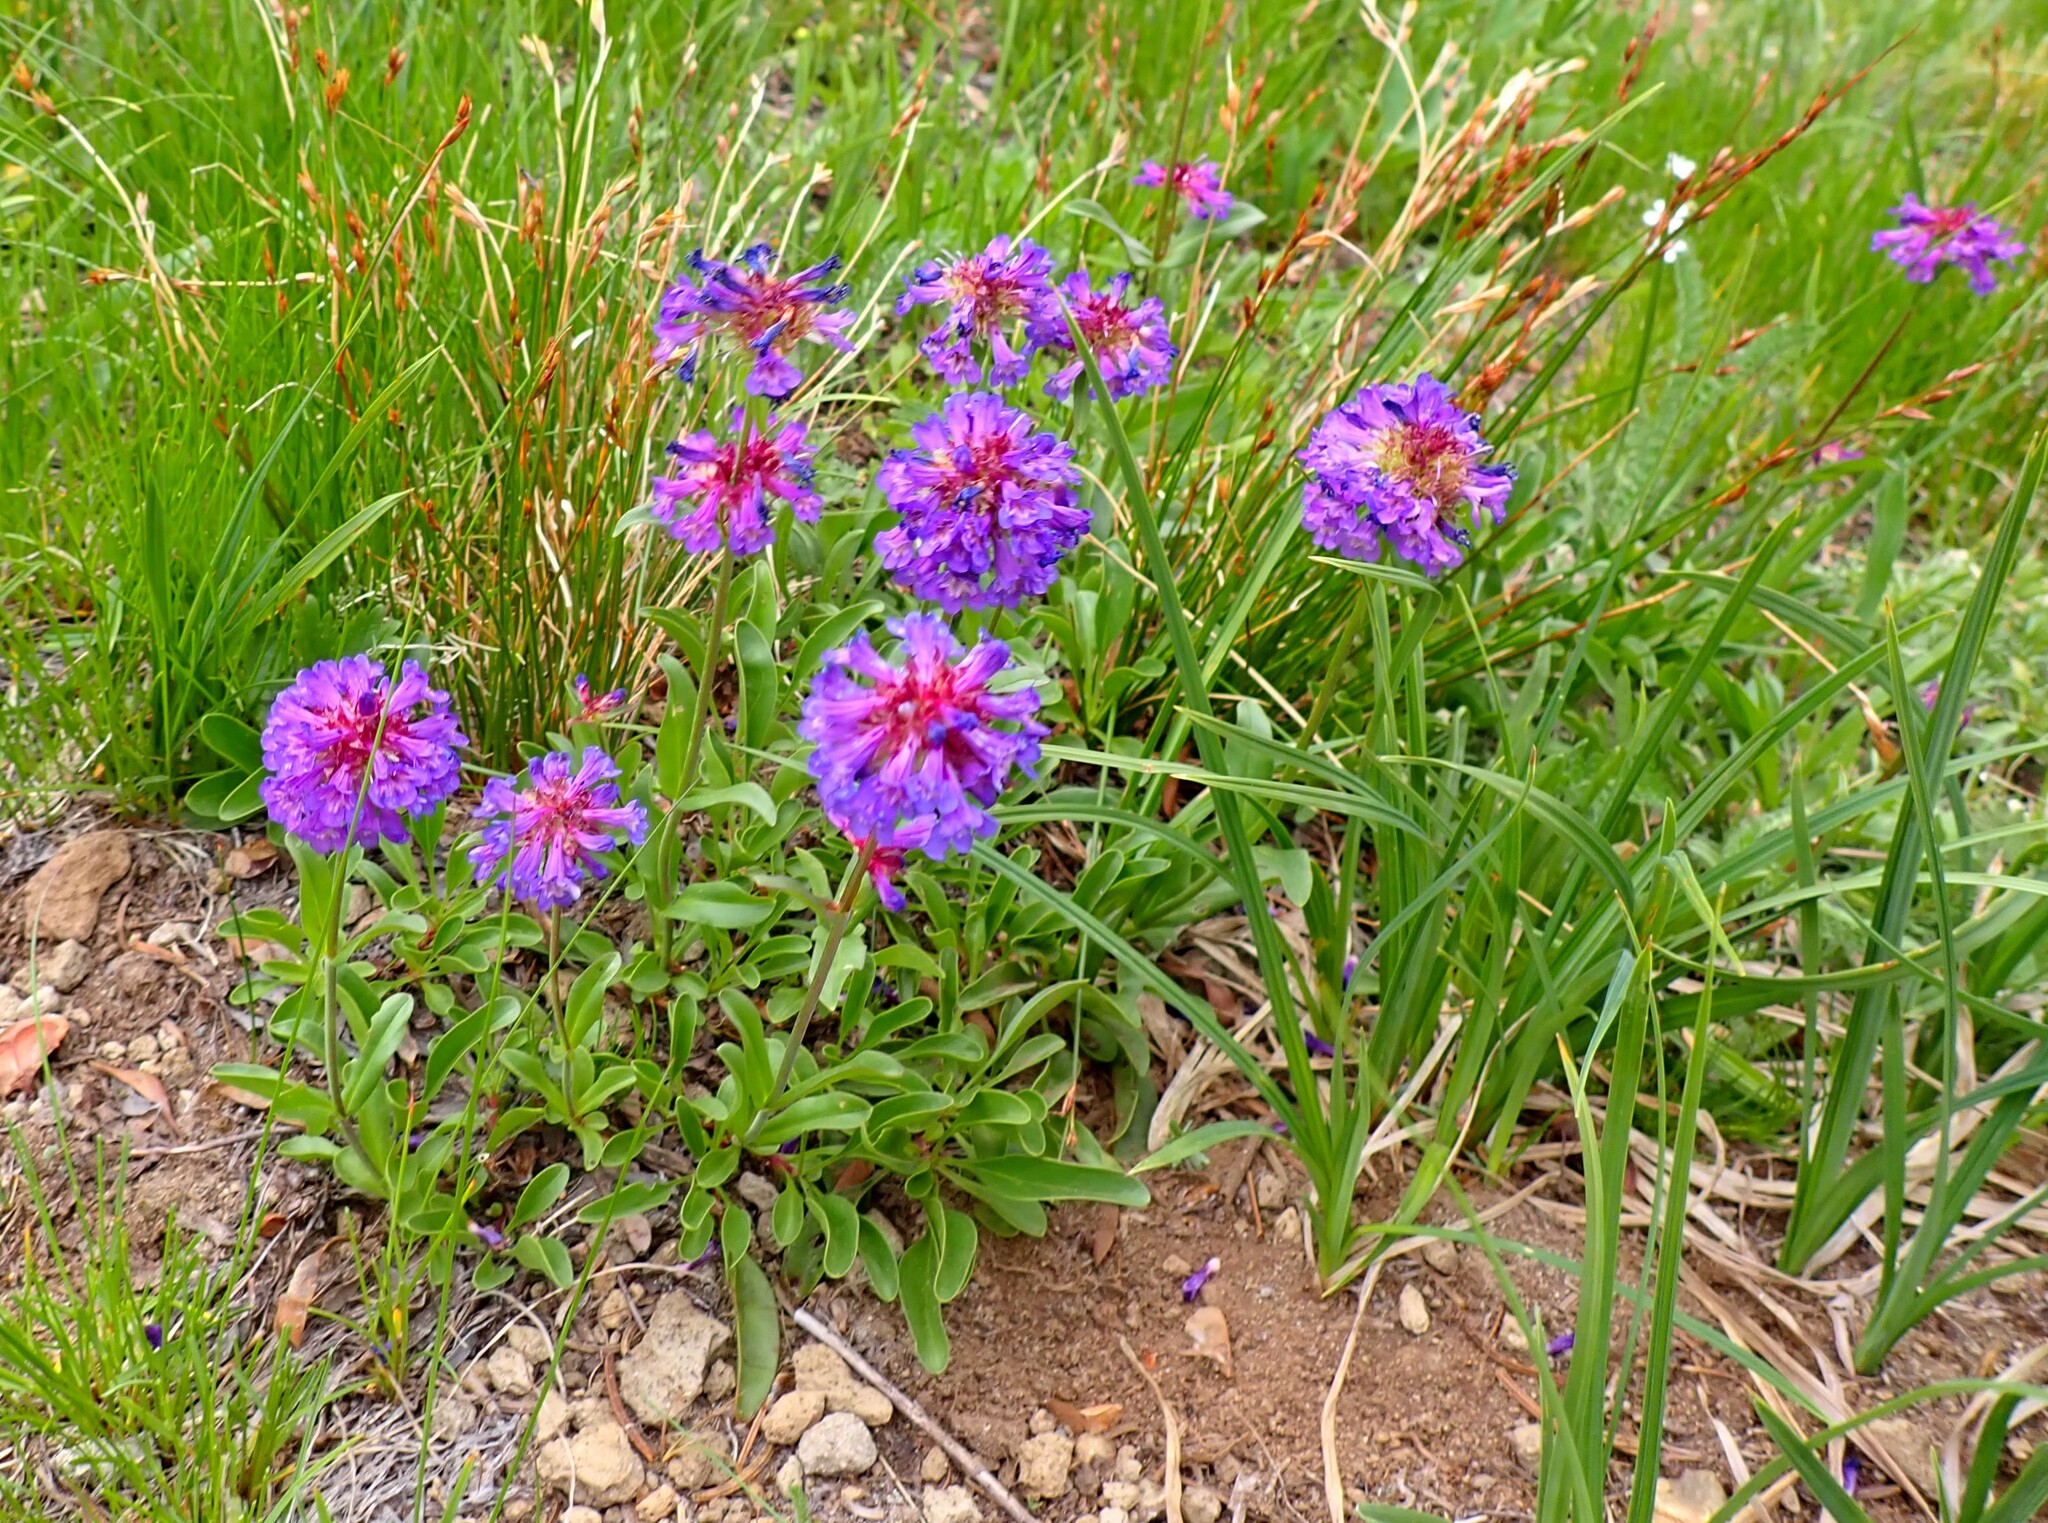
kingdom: Plantae
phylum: Tracheophyta
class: Magnoliopsida
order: Lamiales
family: Plantaginaceae
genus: Penstemon
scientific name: Penstemon procerus
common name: Small-flower penstemon
